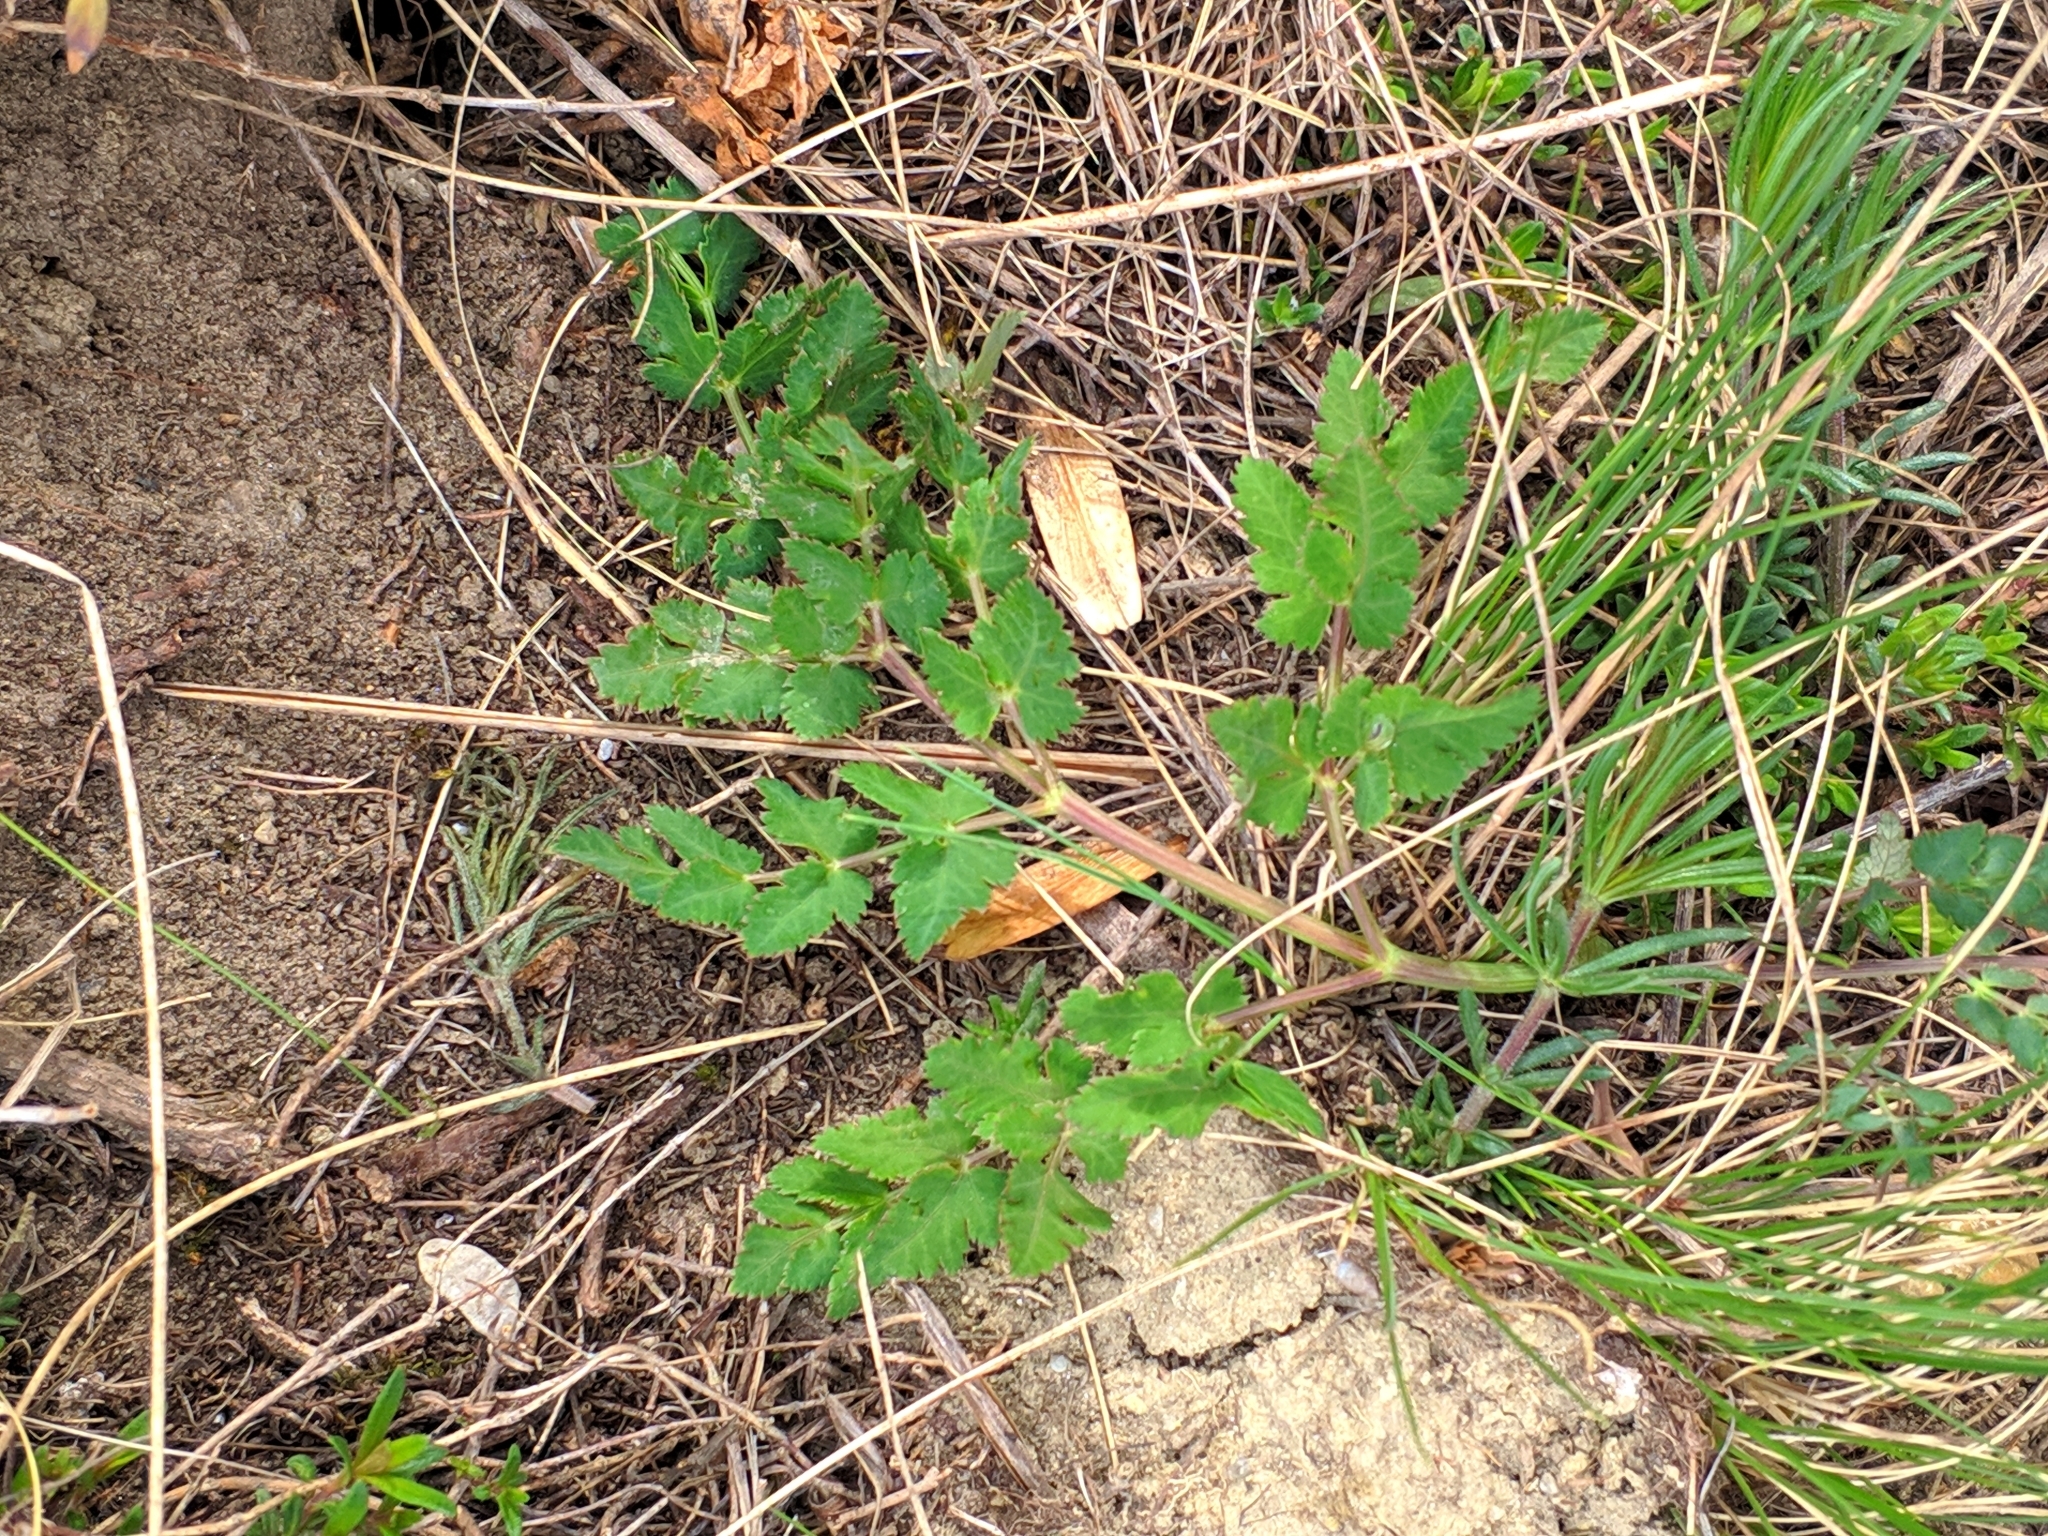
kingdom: Plantae
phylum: Tracheophyta
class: Magnoliopsida
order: Apiales
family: Apiaceae
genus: Cervaria
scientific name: Cervaria rivini
